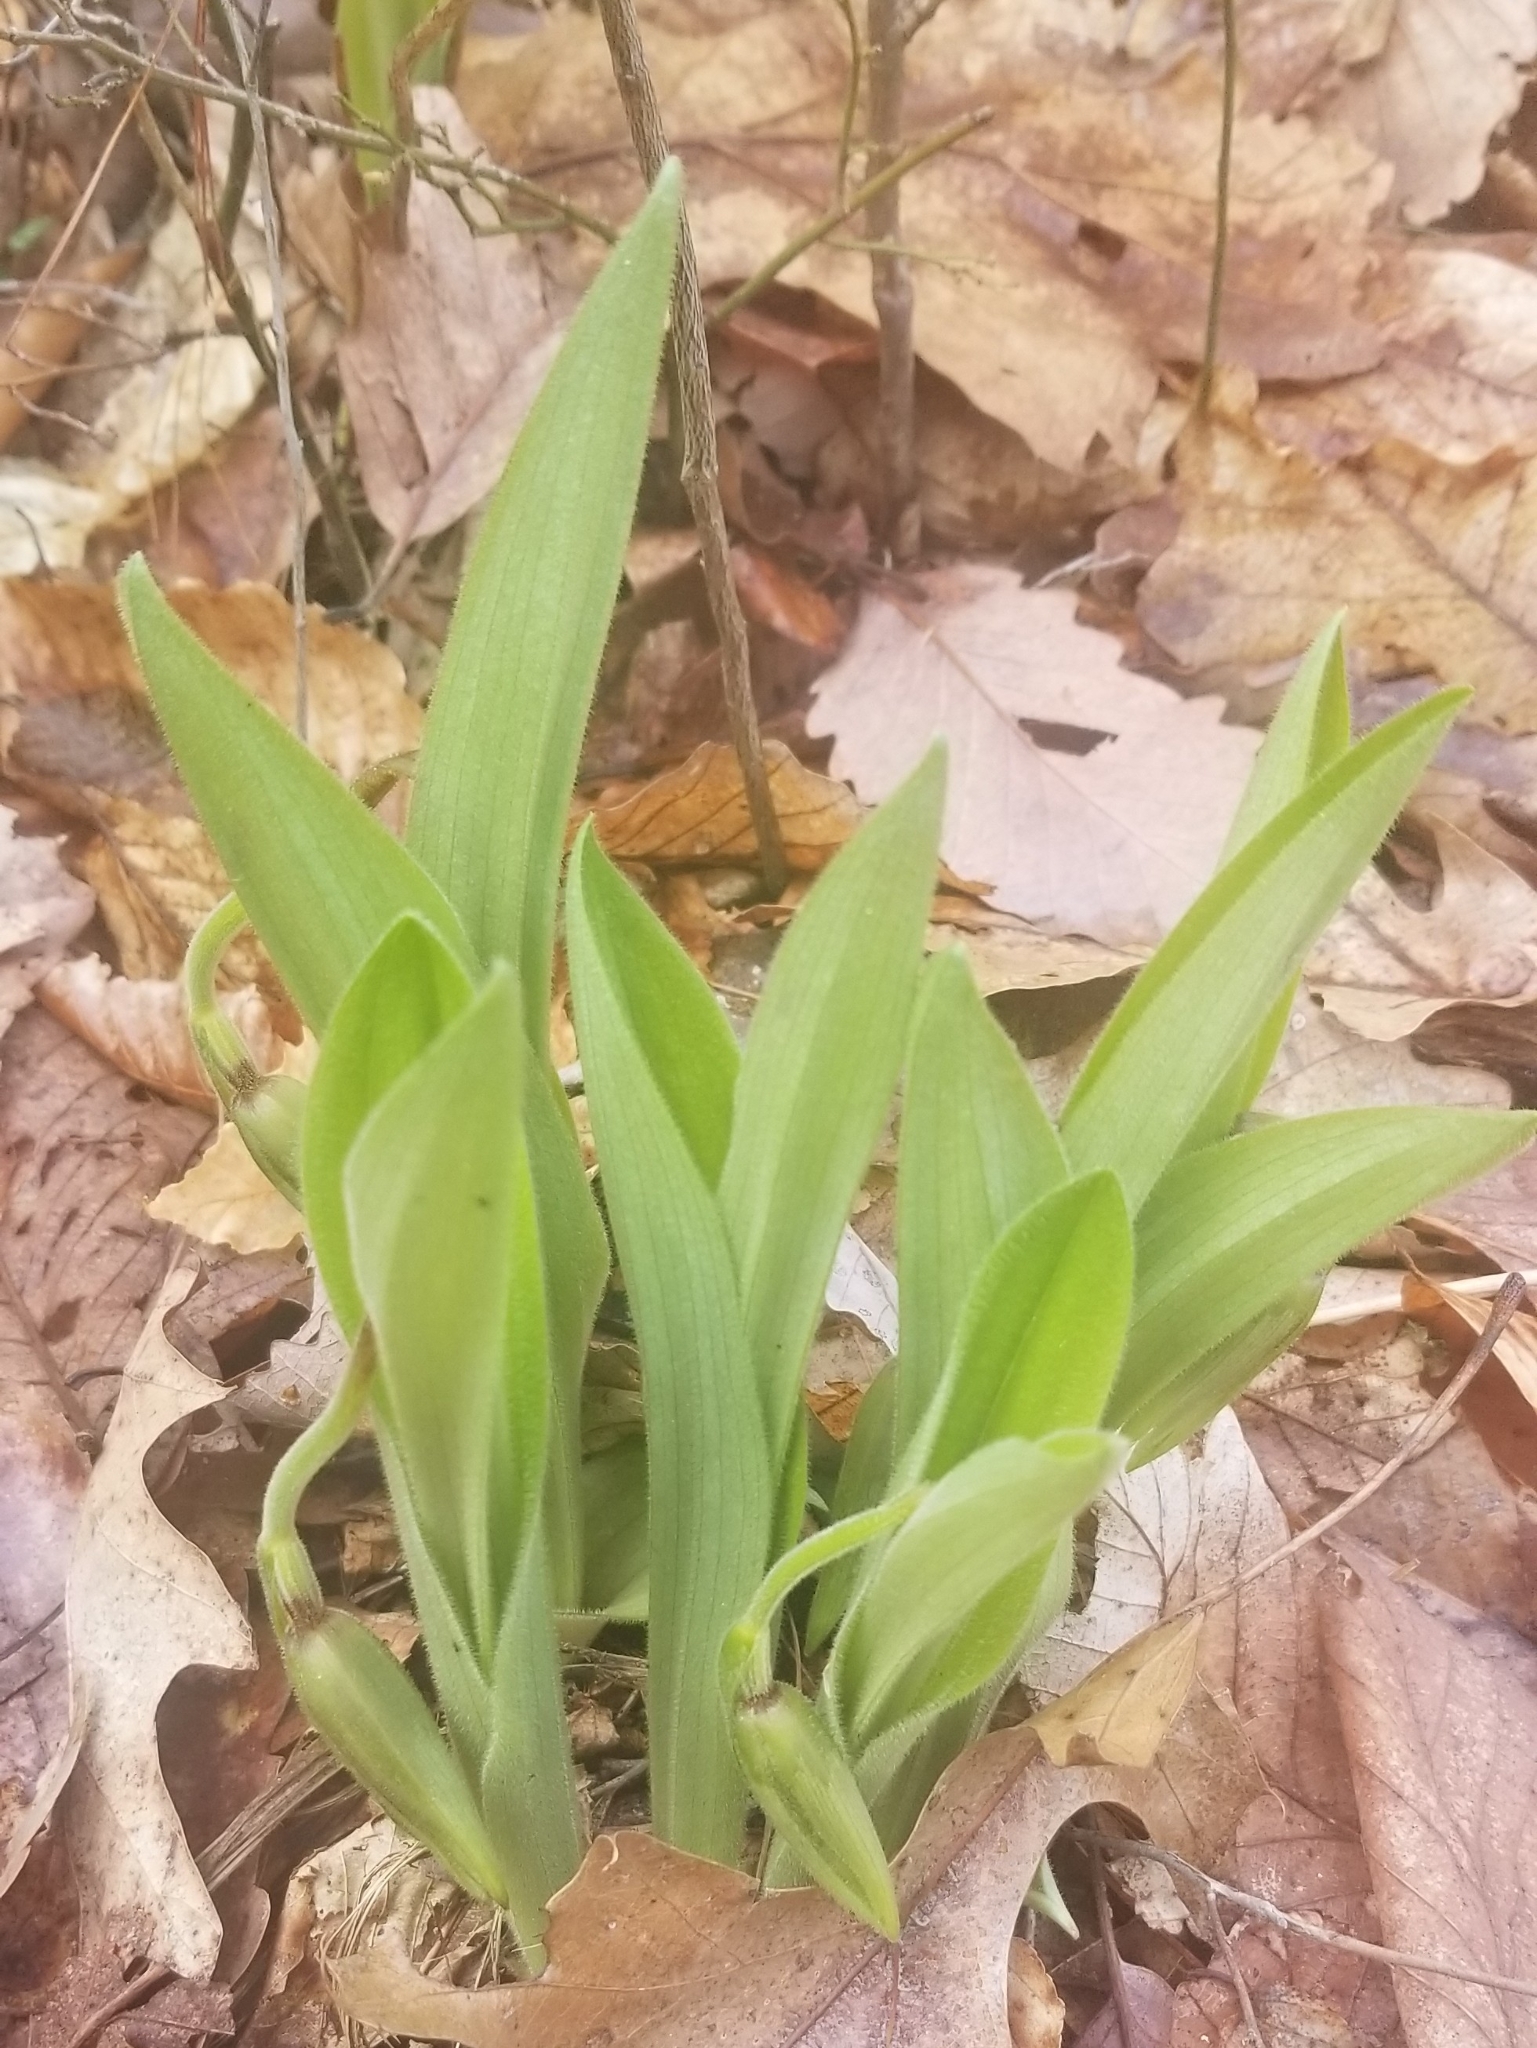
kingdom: Plantae
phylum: Tracheophyta
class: Liliopsida
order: Asparagales
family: Orchidaceae
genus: Cypripedium
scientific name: Cypripedium acaule
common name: Pink lady's-slipper
